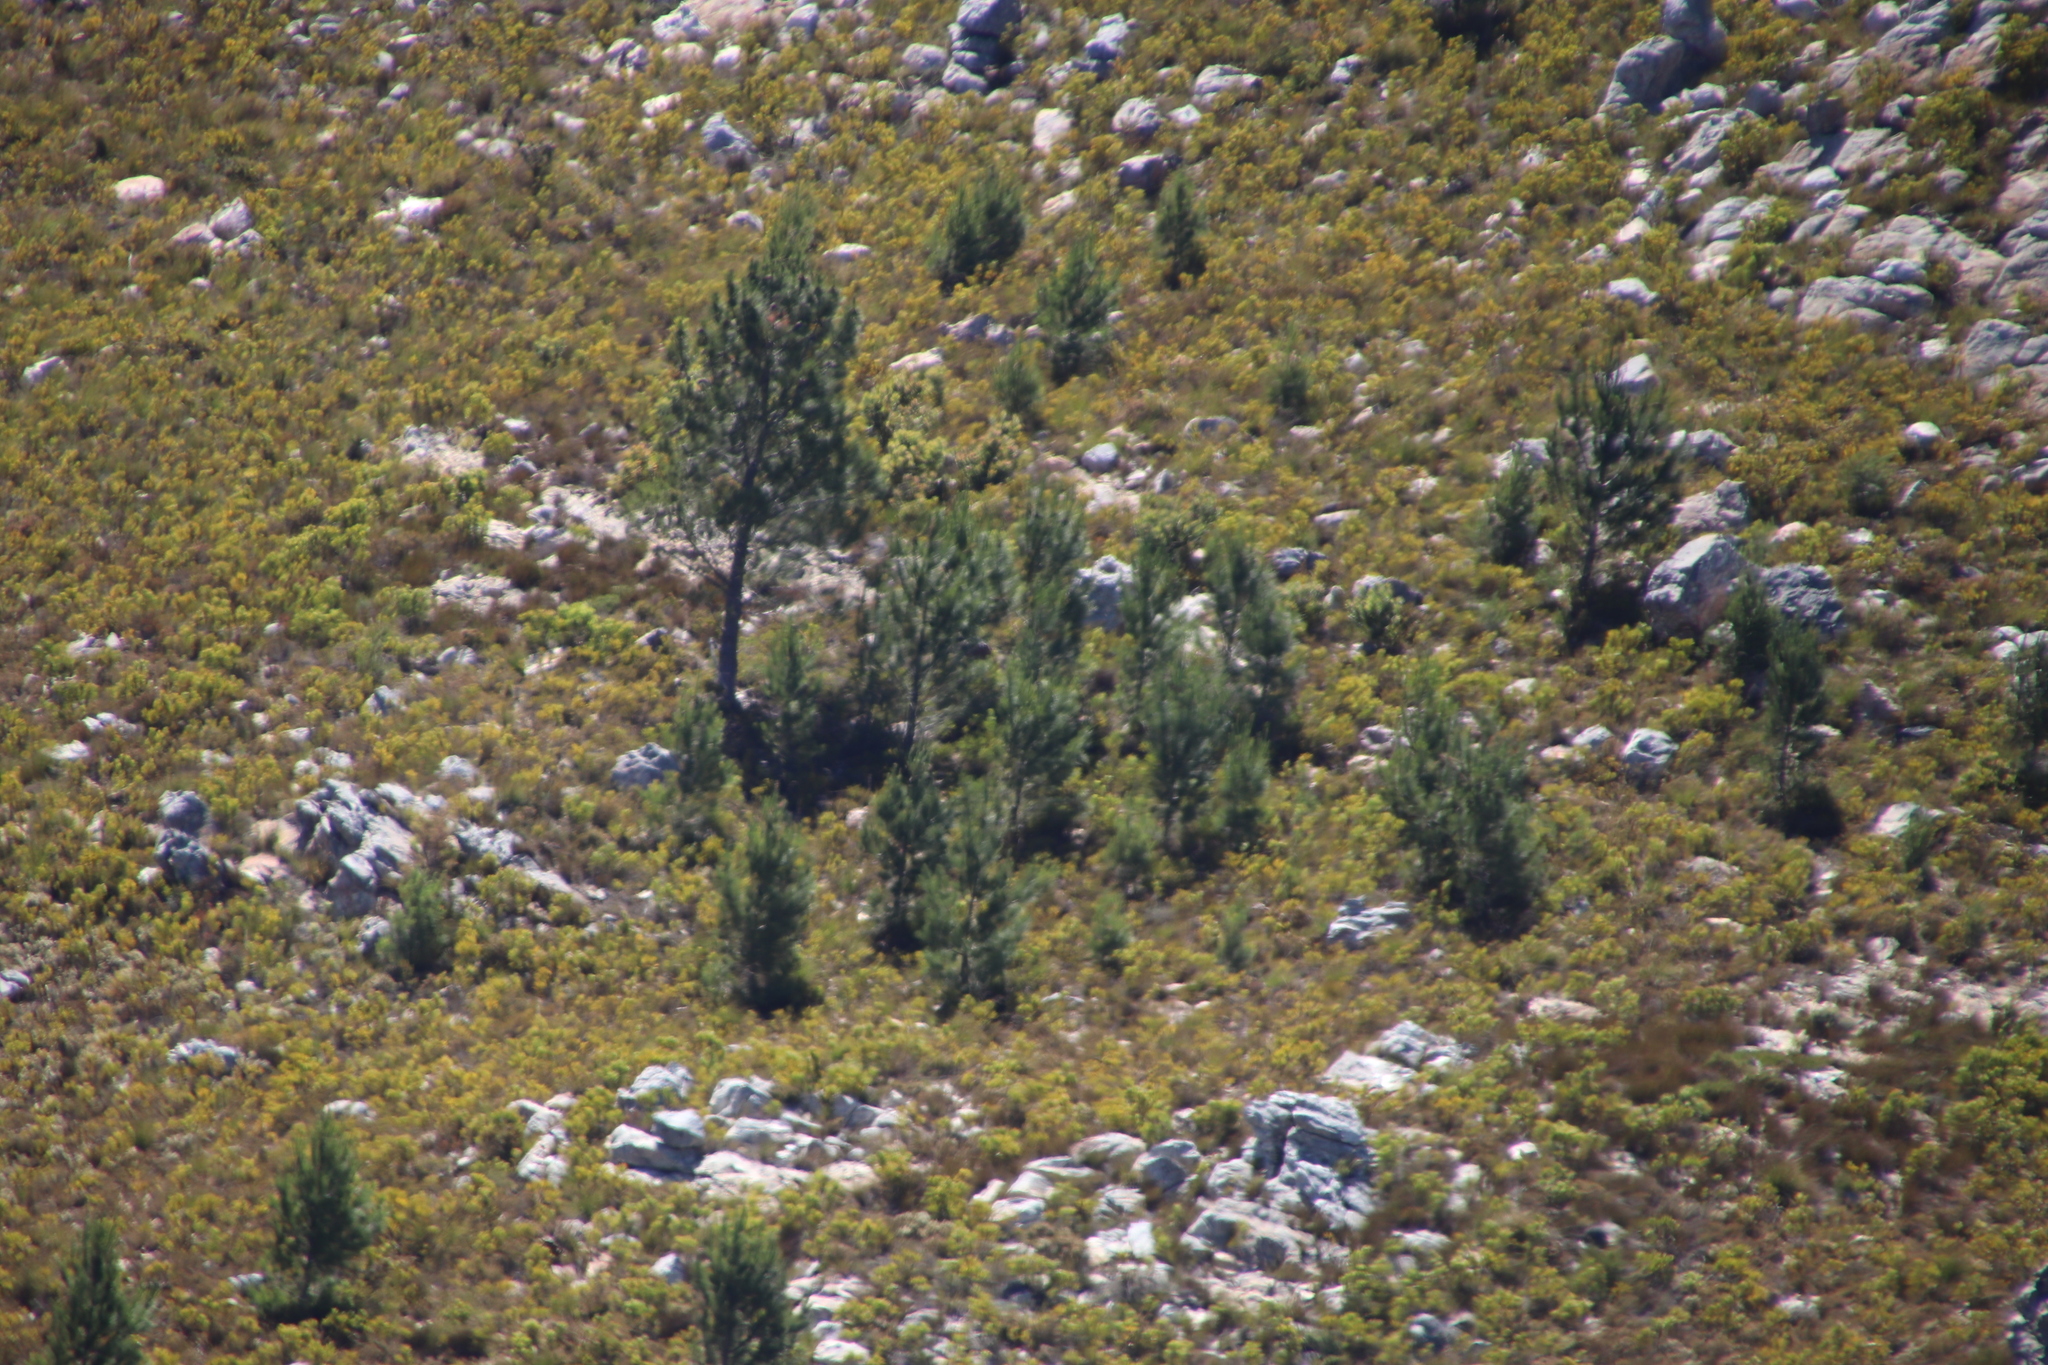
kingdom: Plantae
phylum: Tracheophyta
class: Pinopsida
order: Pinales
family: Pinaceae
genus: Pinus
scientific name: Pinus pinaster
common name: Maritime pine
